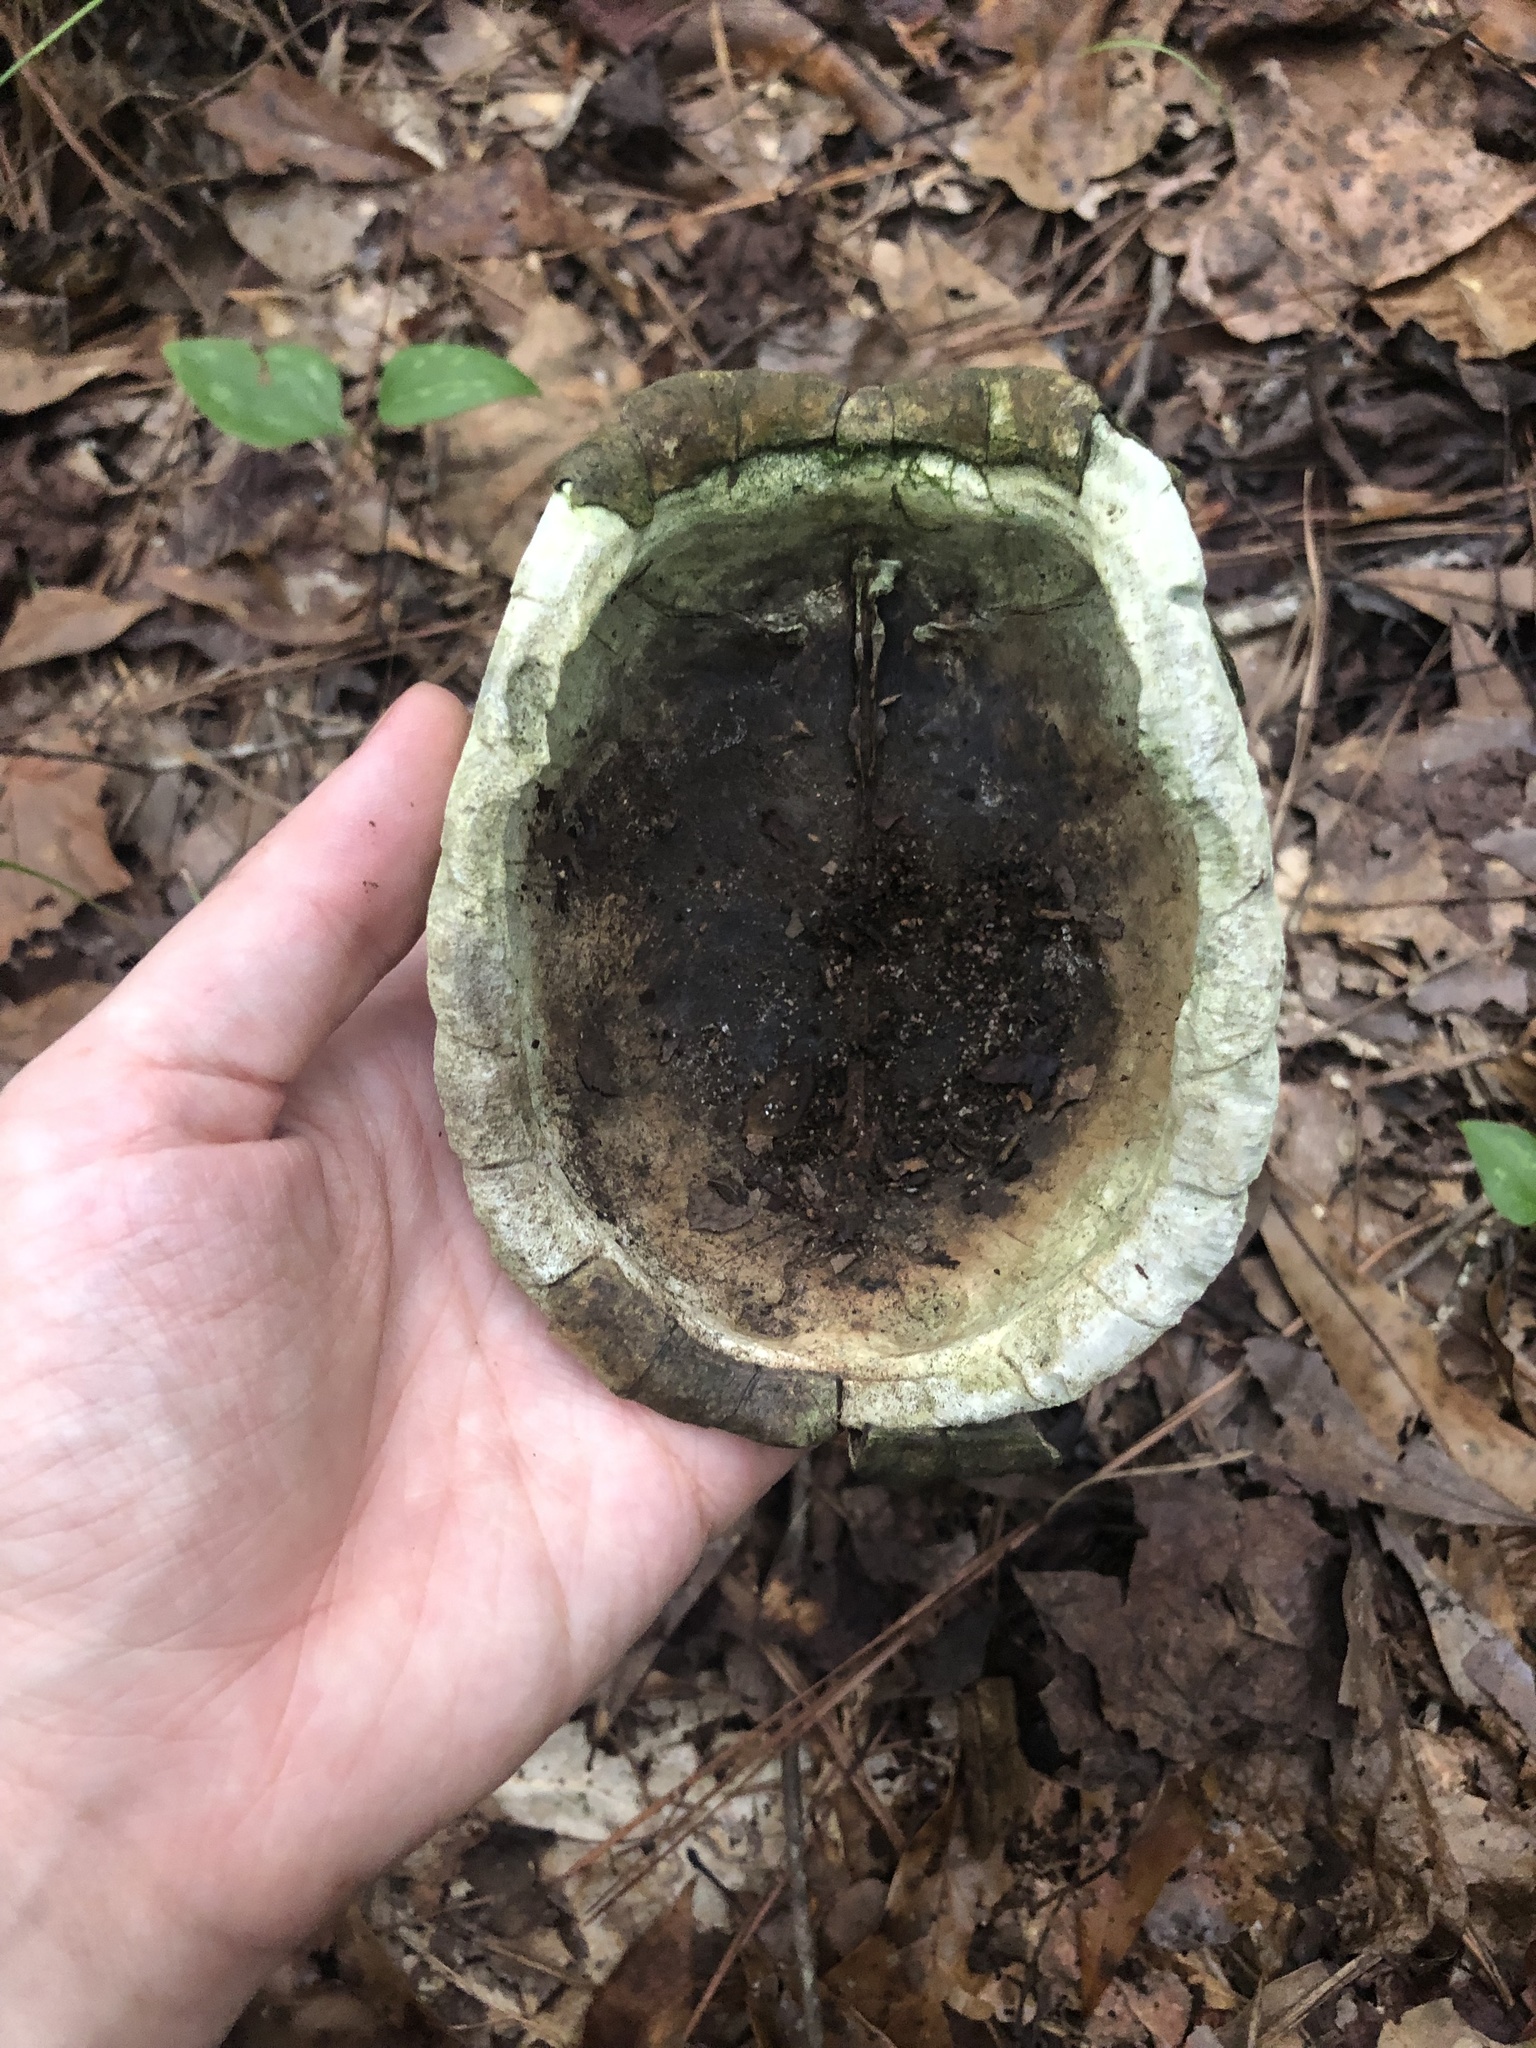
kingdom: Animalia
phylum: Chordata
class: Testudines
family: Emydidae
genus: Terrapene
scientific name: Terrapene carolina
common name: Common box turtle
